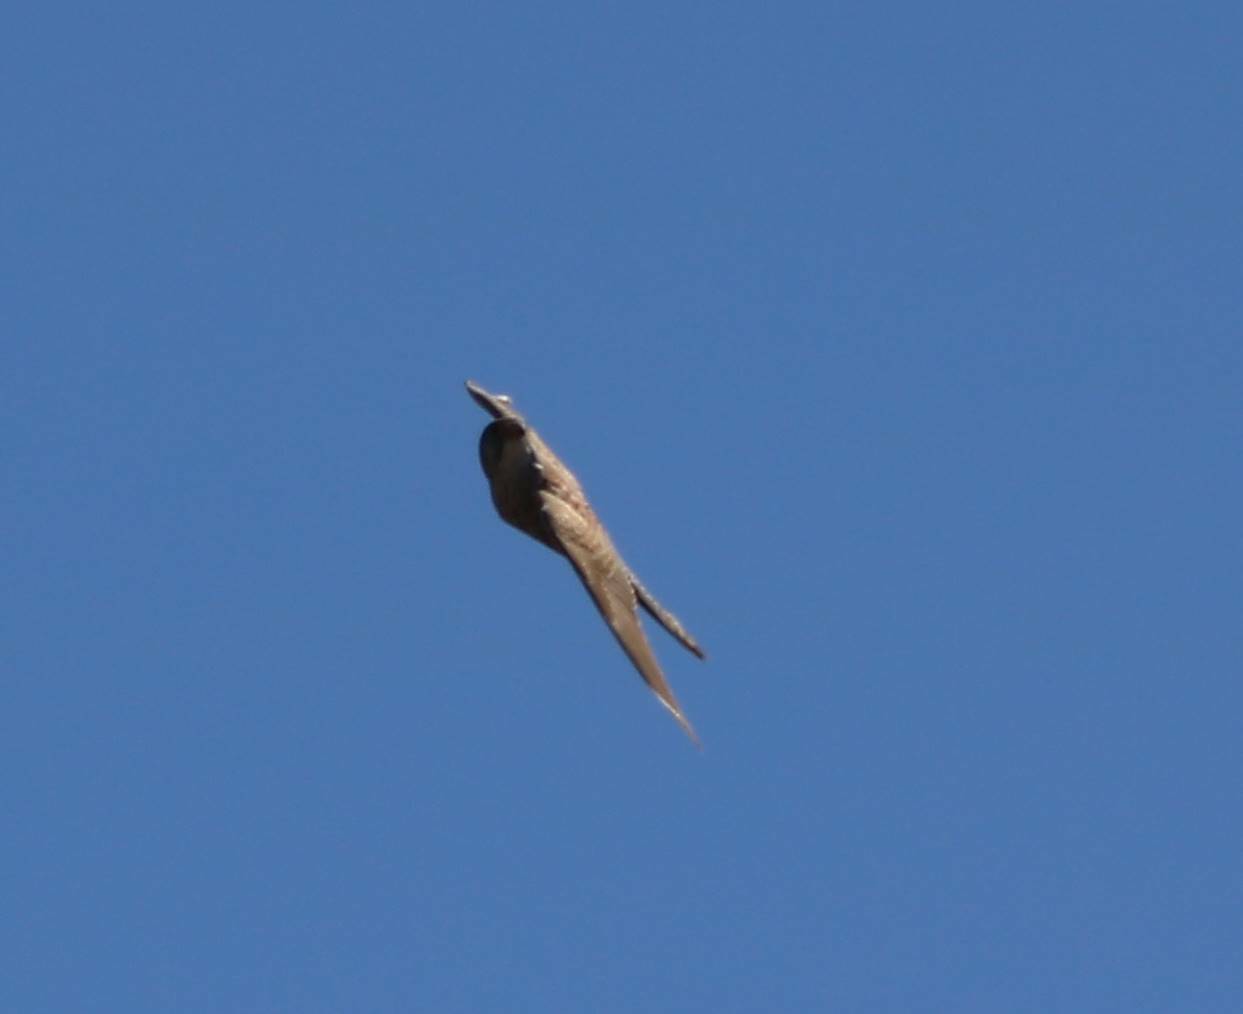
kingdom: Animalia
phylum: Chordata
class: Aves
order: Falconiformes
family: Falconidae
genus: Falco
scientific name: Falco tinnunculus
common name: Common kestrel
